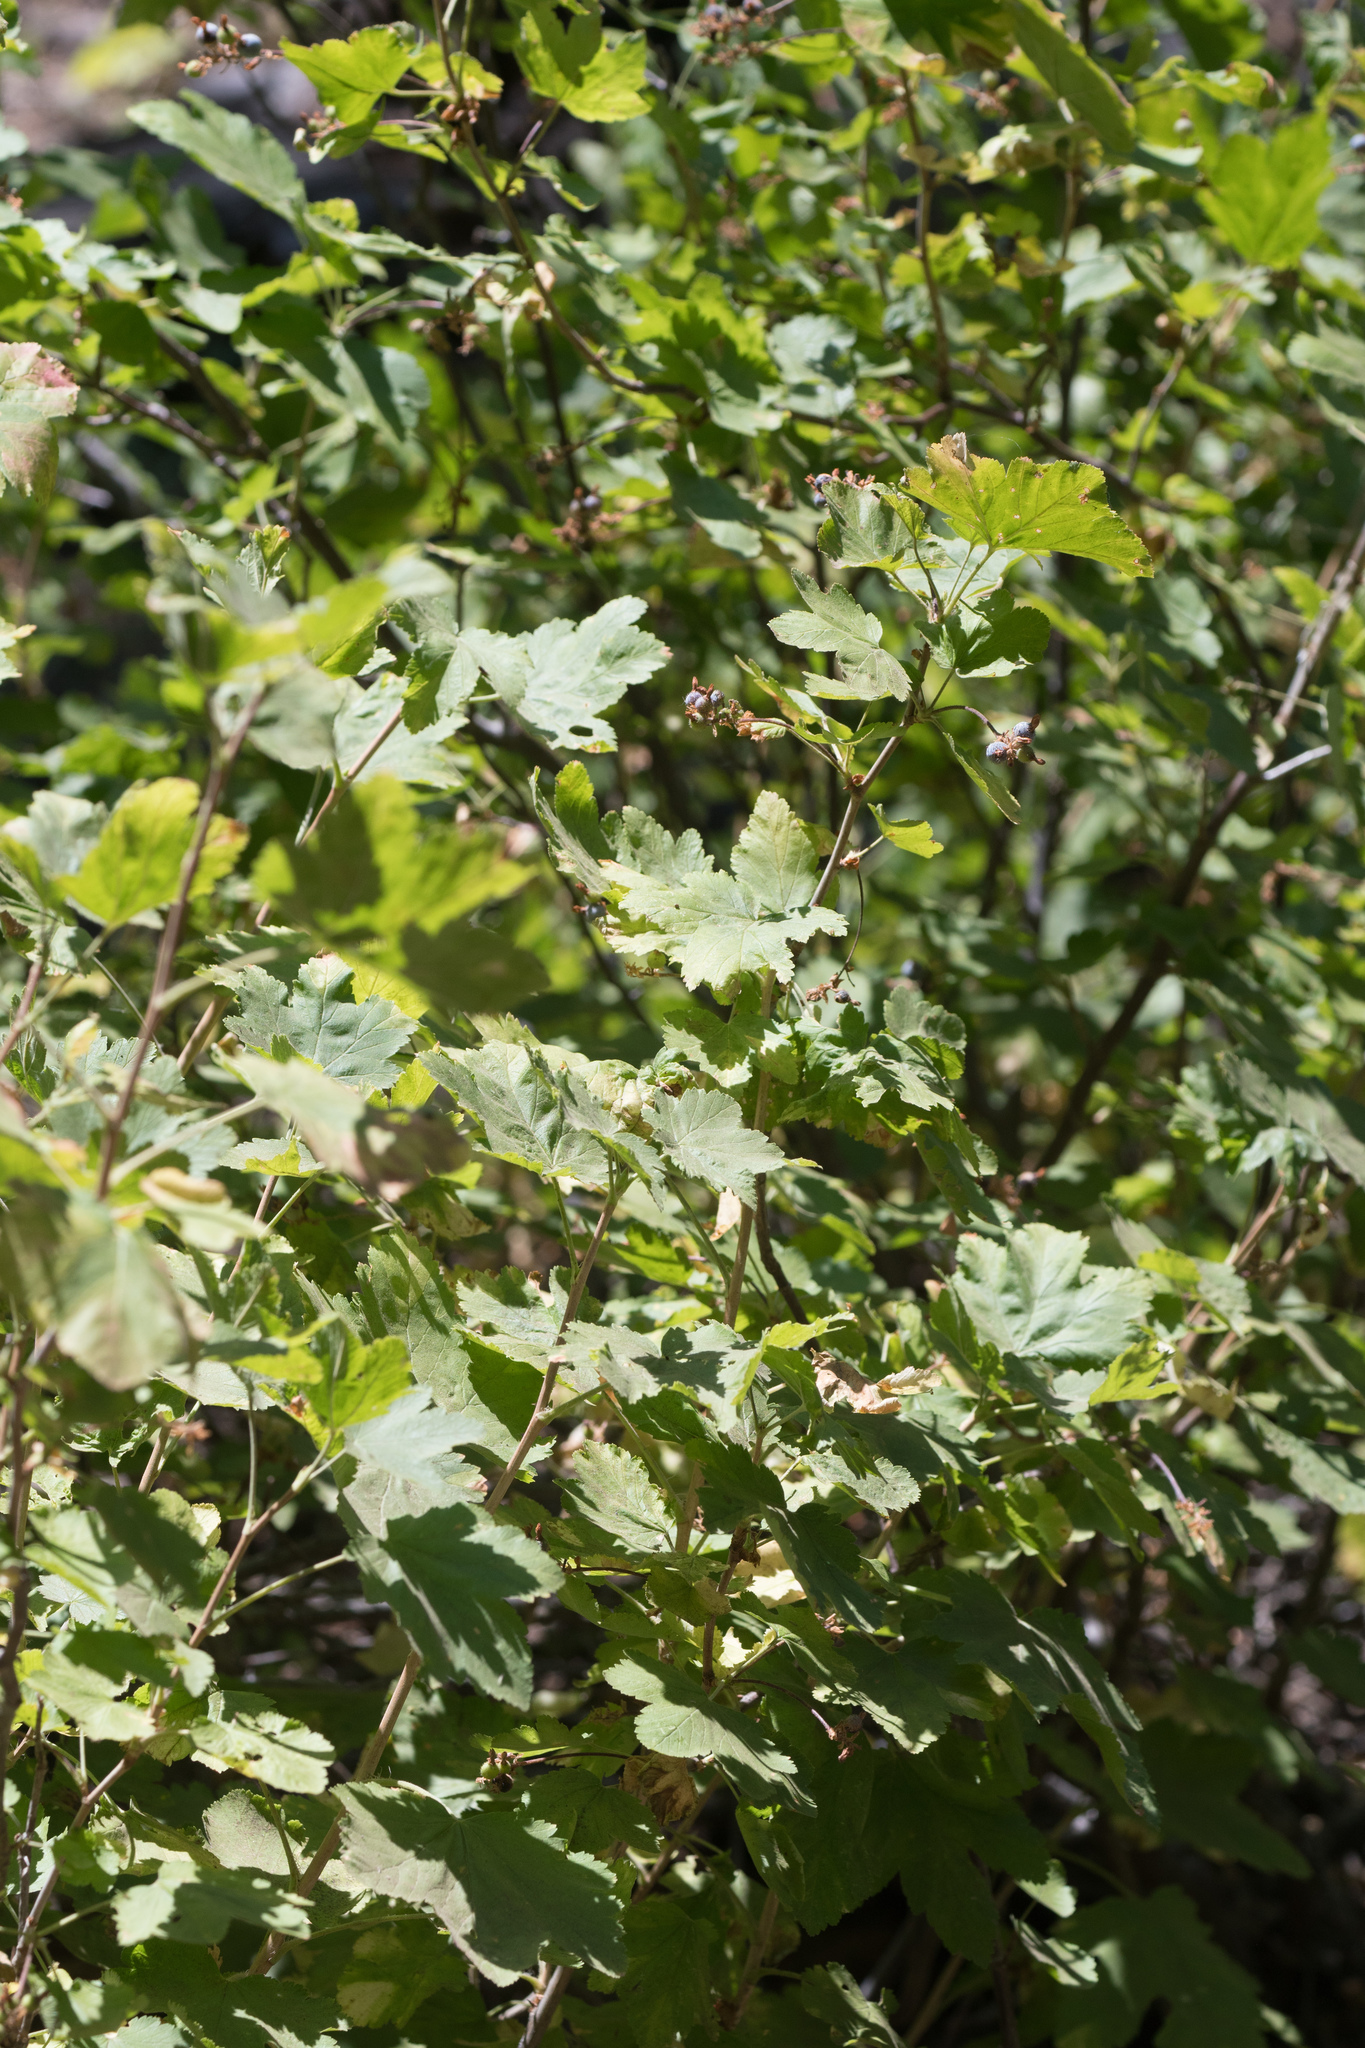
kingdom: Plantae
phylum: Tracheophyta
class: Magnoliopsida
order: Saxifragales
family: Grossulariaceae
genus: Ribes
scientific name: Ribes nevadense
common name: Mountain pink currant
